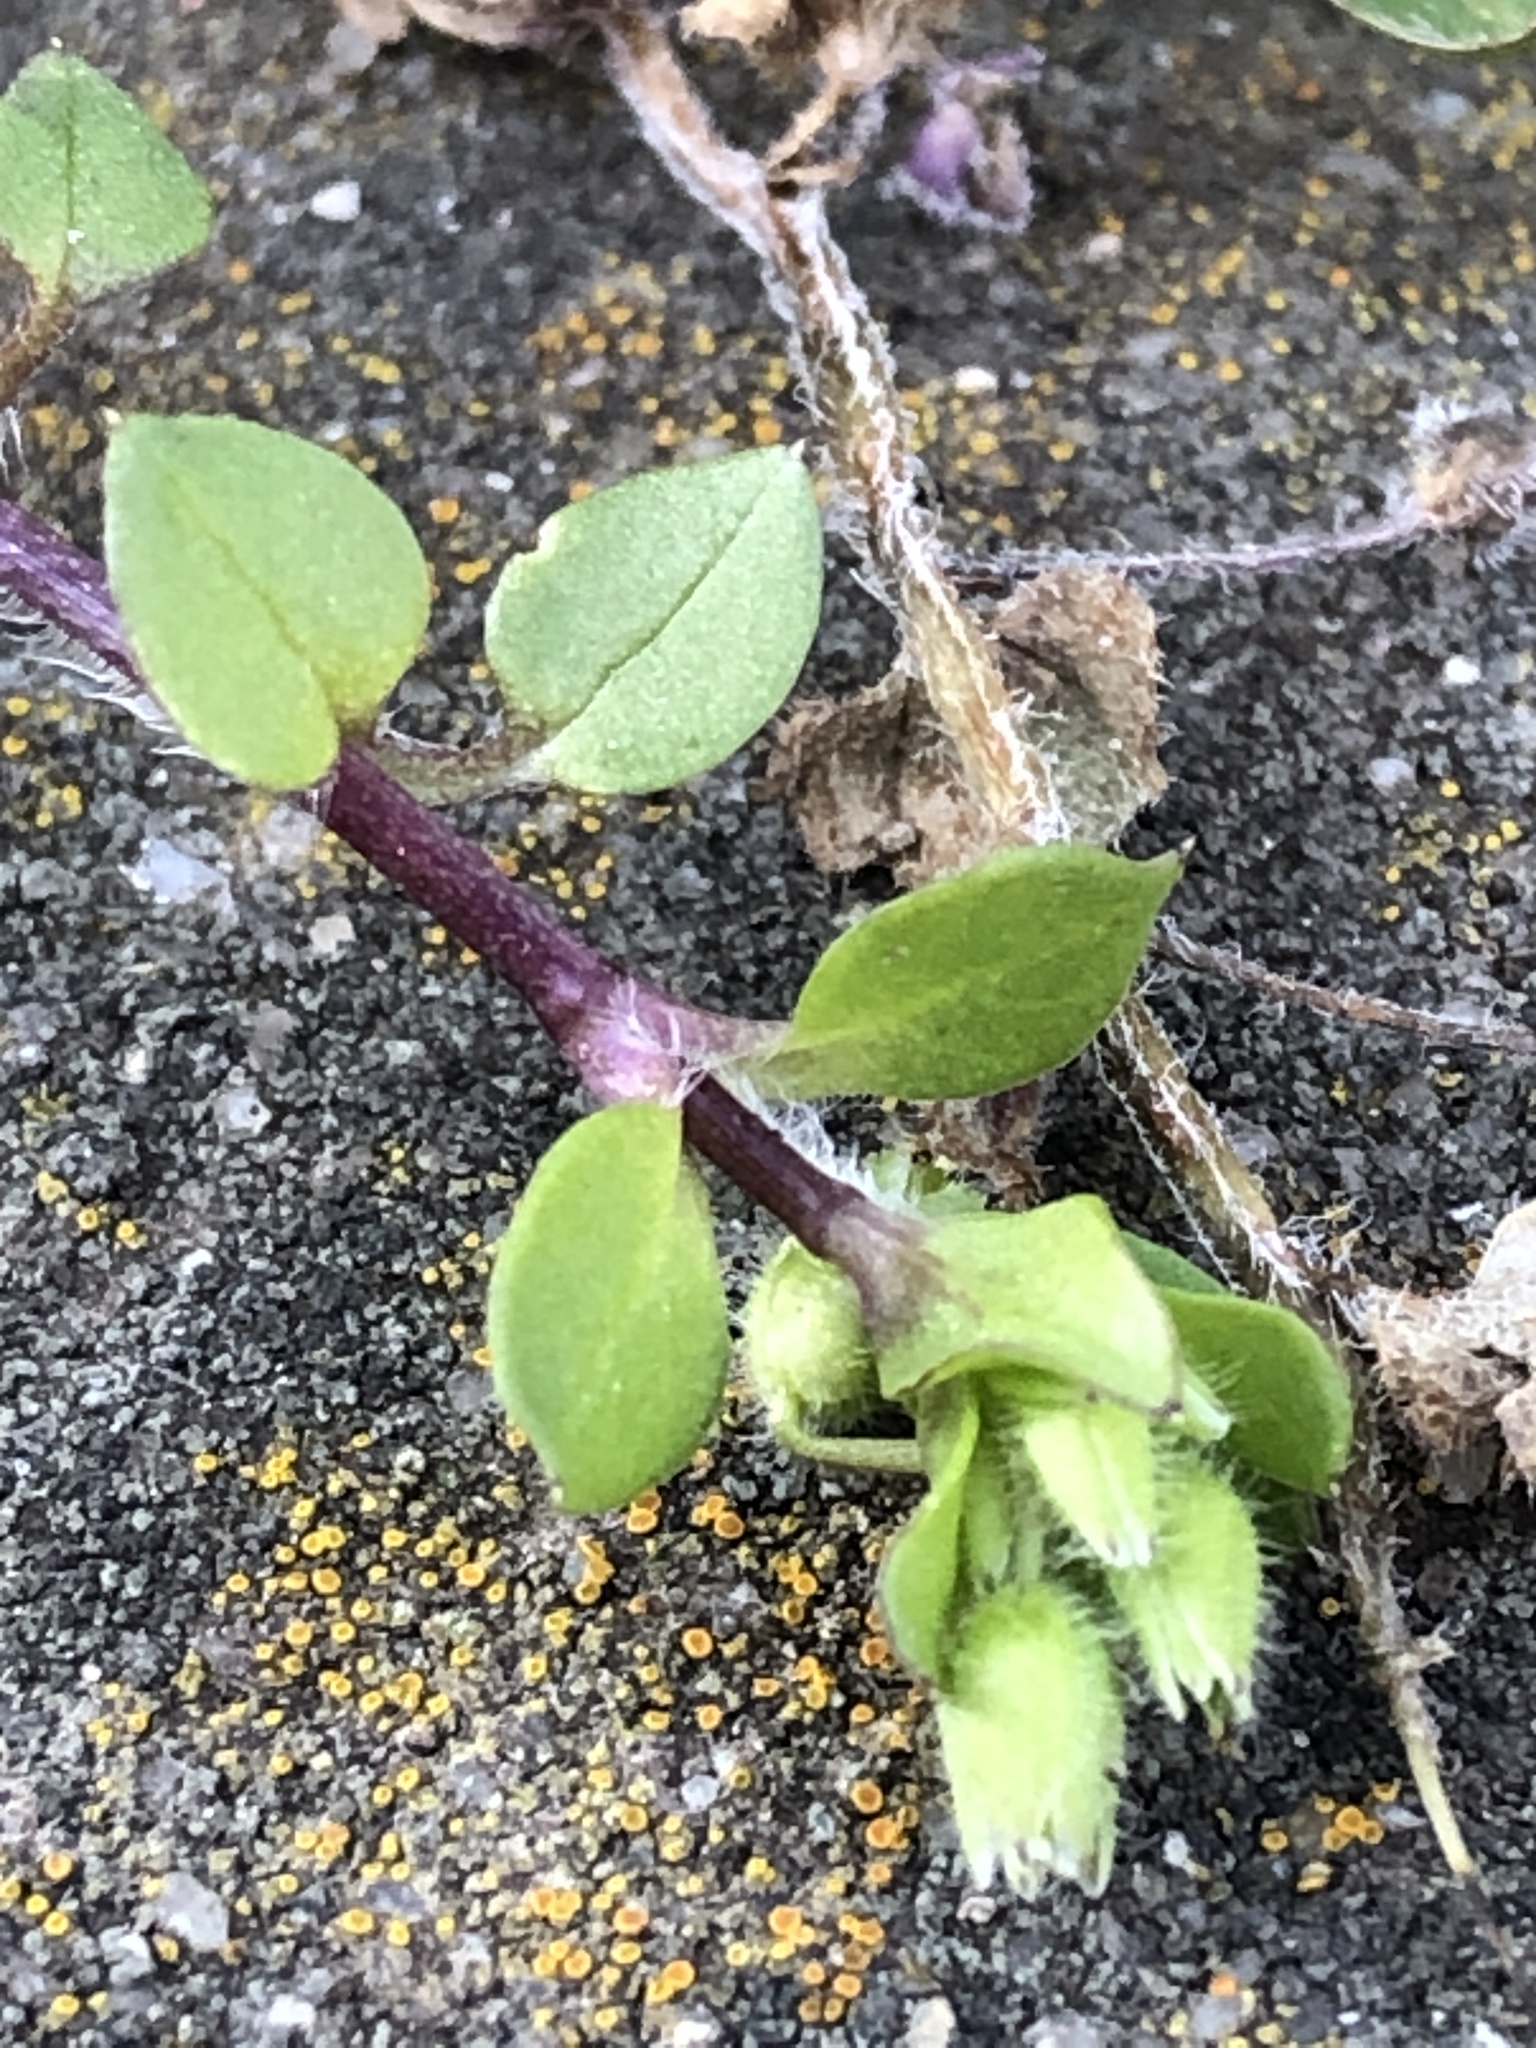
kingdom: Plantae
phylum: Tracheophyta
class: Magnoliopsida
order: Caryophyllales
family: Caryophyllaceae
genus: Stellaria
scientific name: Stellaria media
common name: Common chickweed
